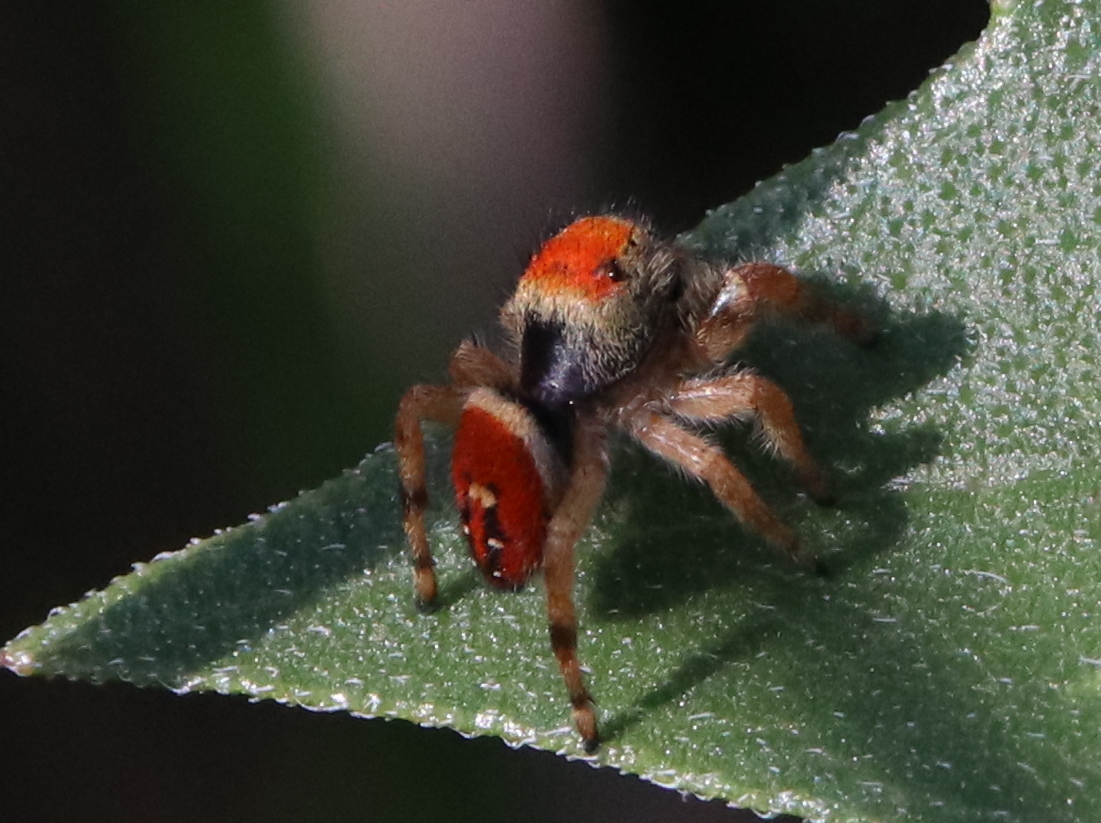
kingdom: Animalia
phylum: Arthropoda
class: Arachnida
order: Araneae
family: Salticidae
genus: Phidippus
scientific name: Phidippus apacheanus
